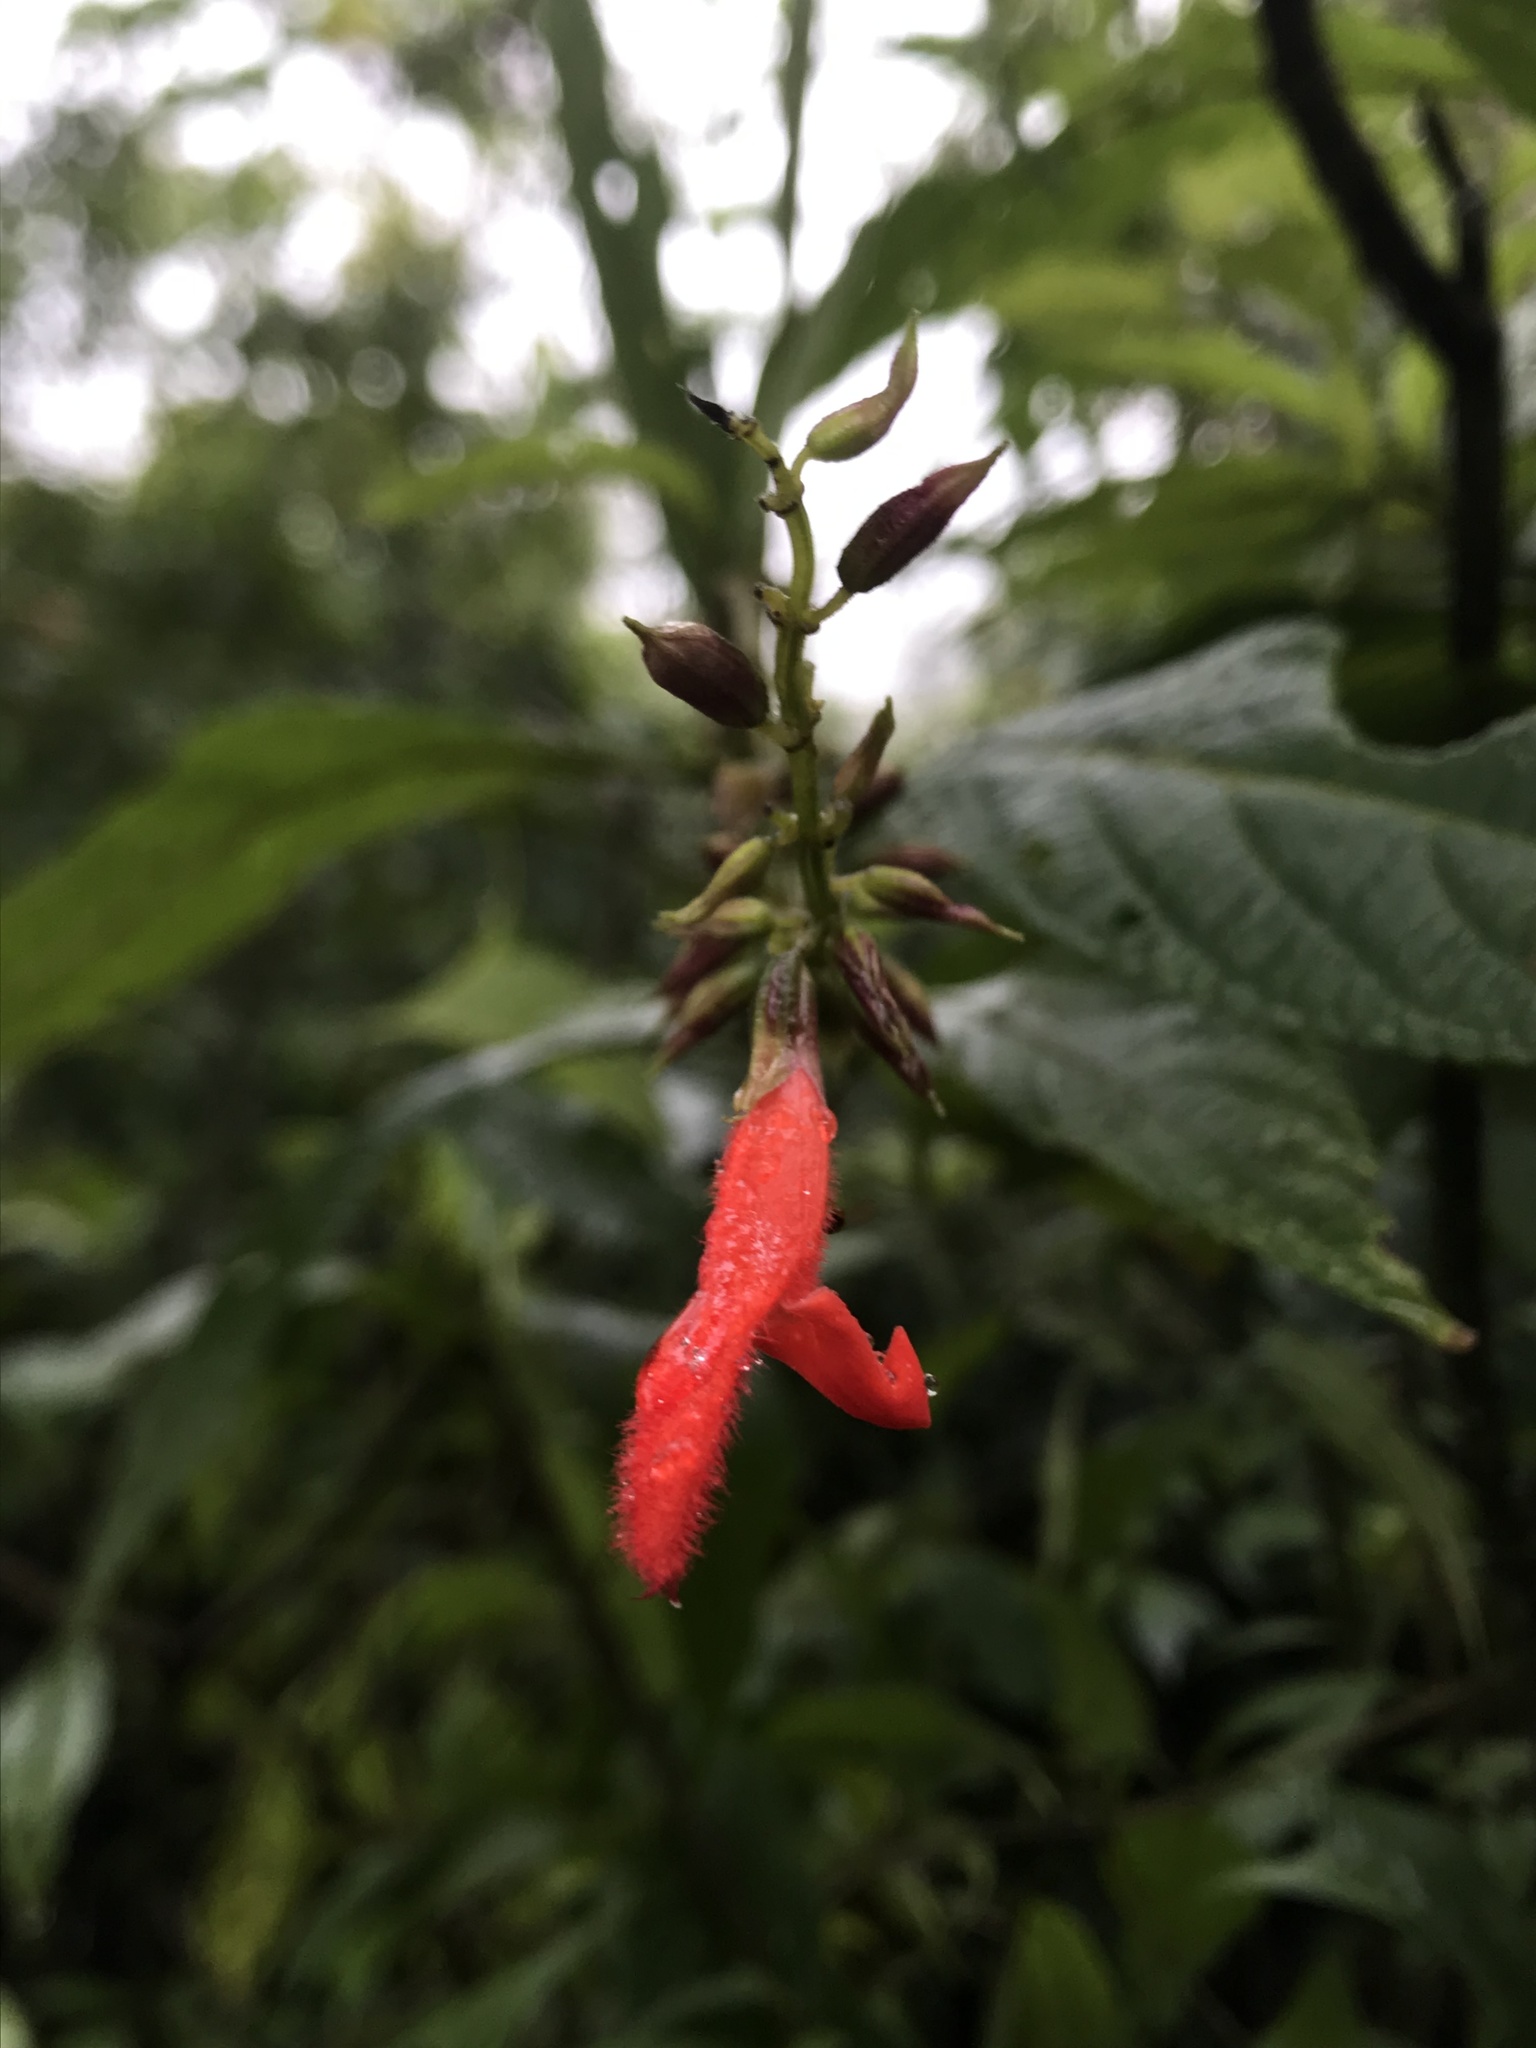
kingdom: Plantae
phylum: Tracheophyta
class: Magnoliopsida
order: Lamiales
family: Lamiaceae
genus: Salvia
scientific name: Salvia rufula
